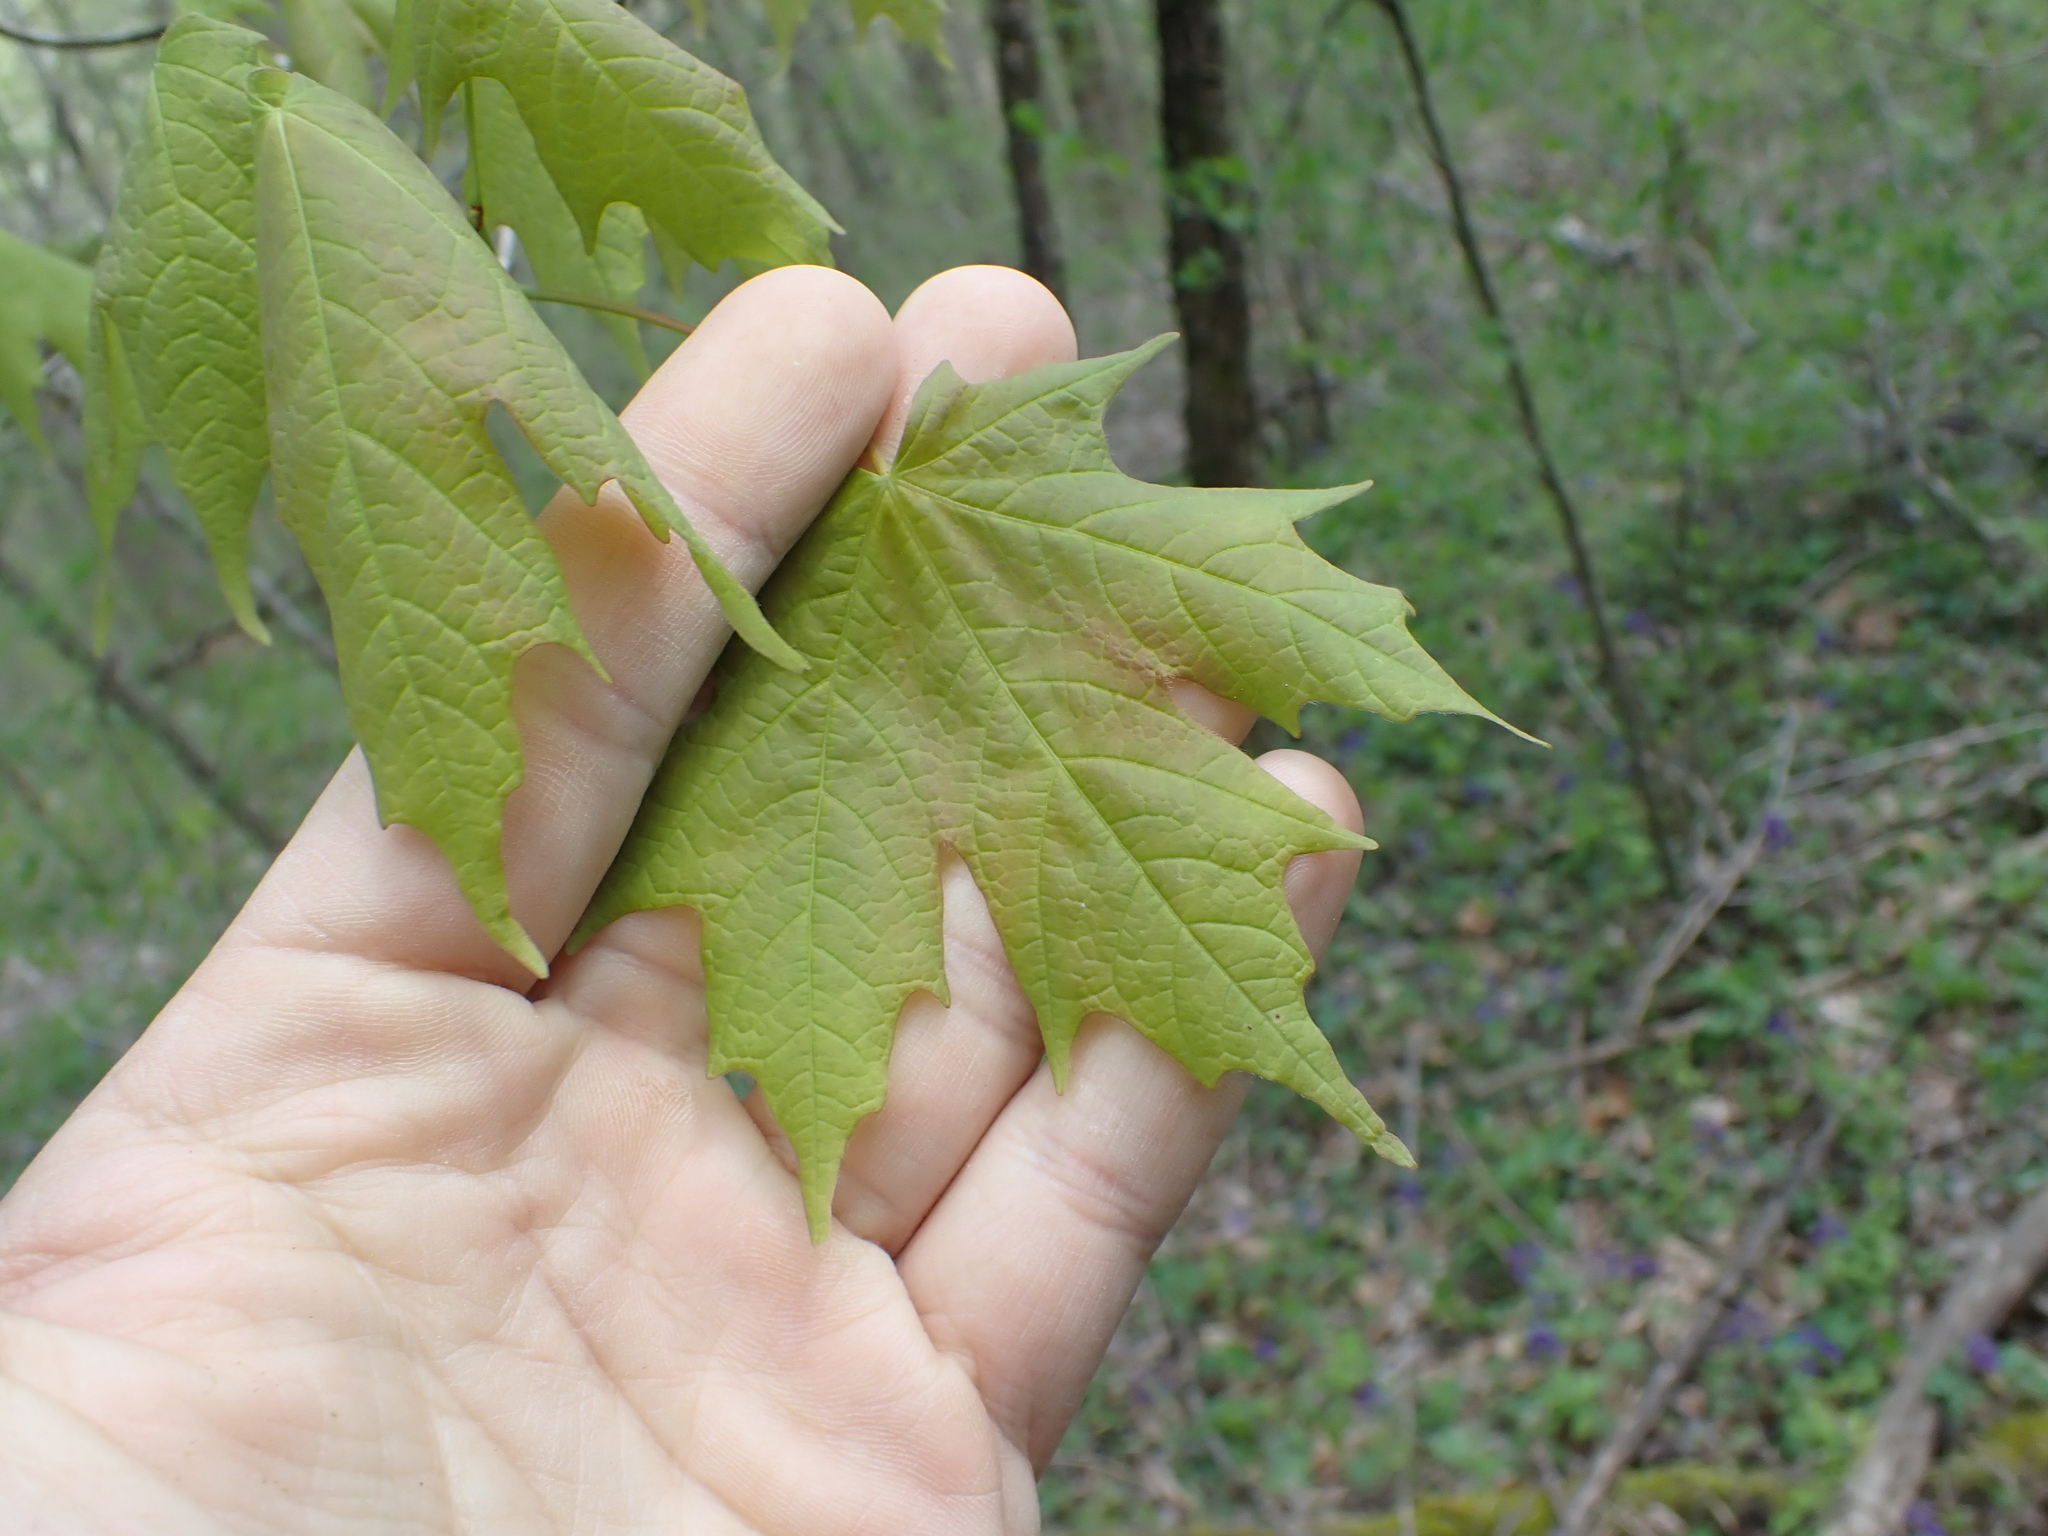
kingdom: Plantae
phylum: Tracheophyta
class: Magnoliopsida
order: Sapindales
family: Sapindaceae
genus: Acer
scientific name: Acer saccharum
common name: Sugar maple
